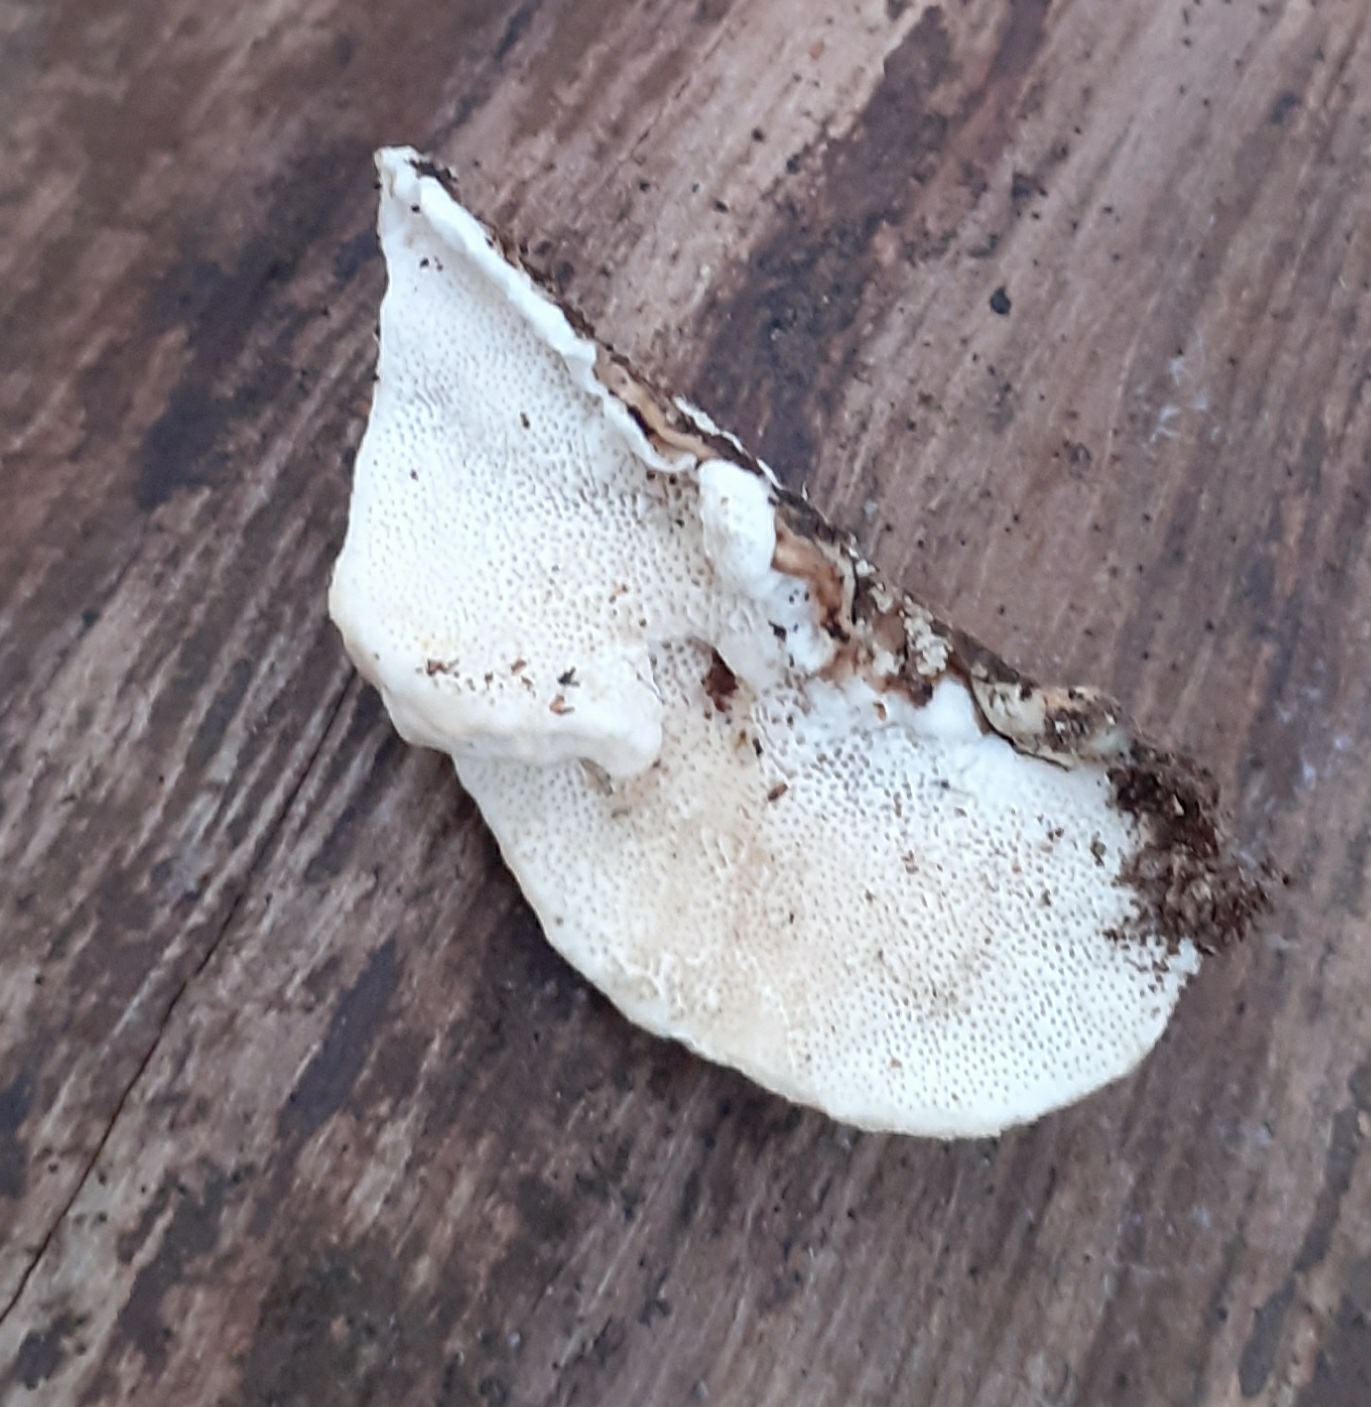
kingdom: Fungi
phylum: Basidiomycota
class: Agaricomycetes
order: Polyporales
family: Polyporaceae
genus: Trametes
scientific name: Trametes versicolor
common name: Turkeytail
